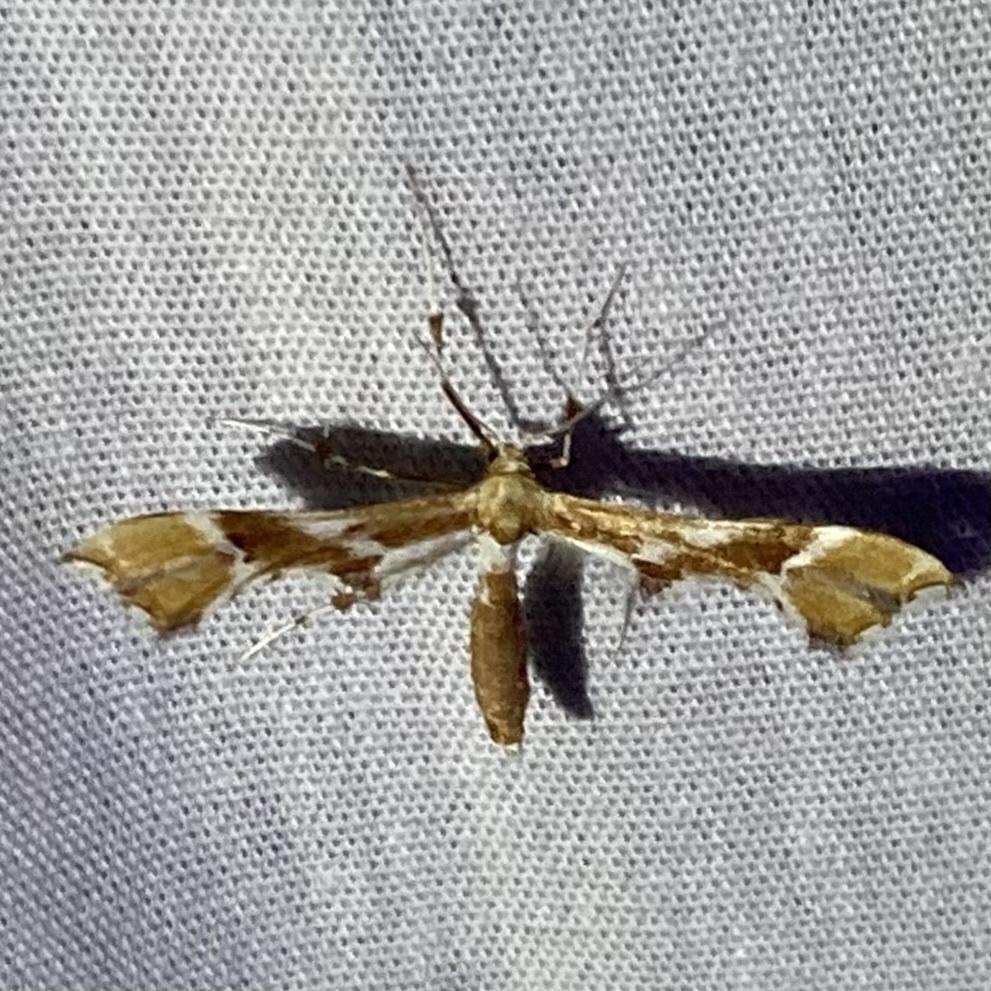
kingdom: Animalia
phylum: Arthropoda
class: Insecta
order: Lepidoptera
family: Pterophoridae
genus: Cnaemidophorus
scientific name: Cnaemidophorus rhododactyla
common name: Rose plume
